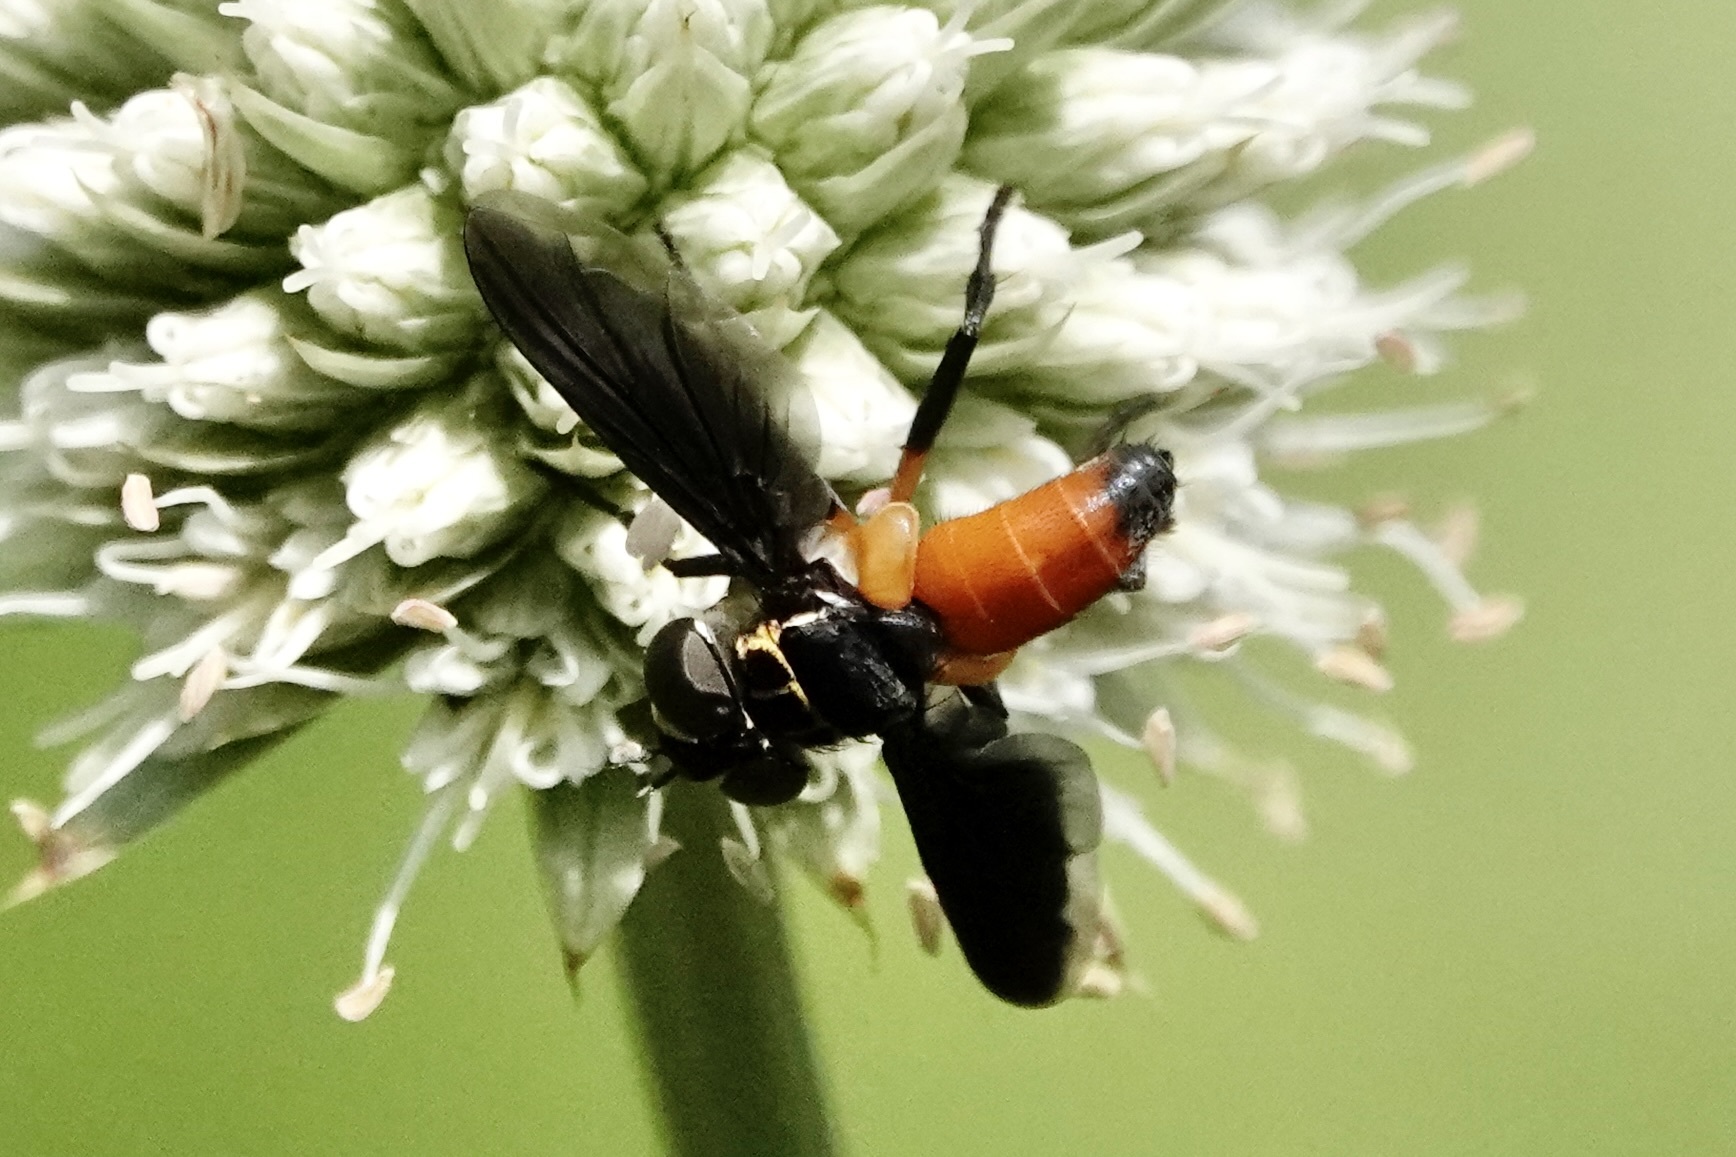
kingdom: Animalia
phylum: Arthropoda
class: Insecta
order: Diptera
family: Tachinidae
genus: Trichopoda
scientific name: Trichopoda pennipes
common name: Tachinid fly
